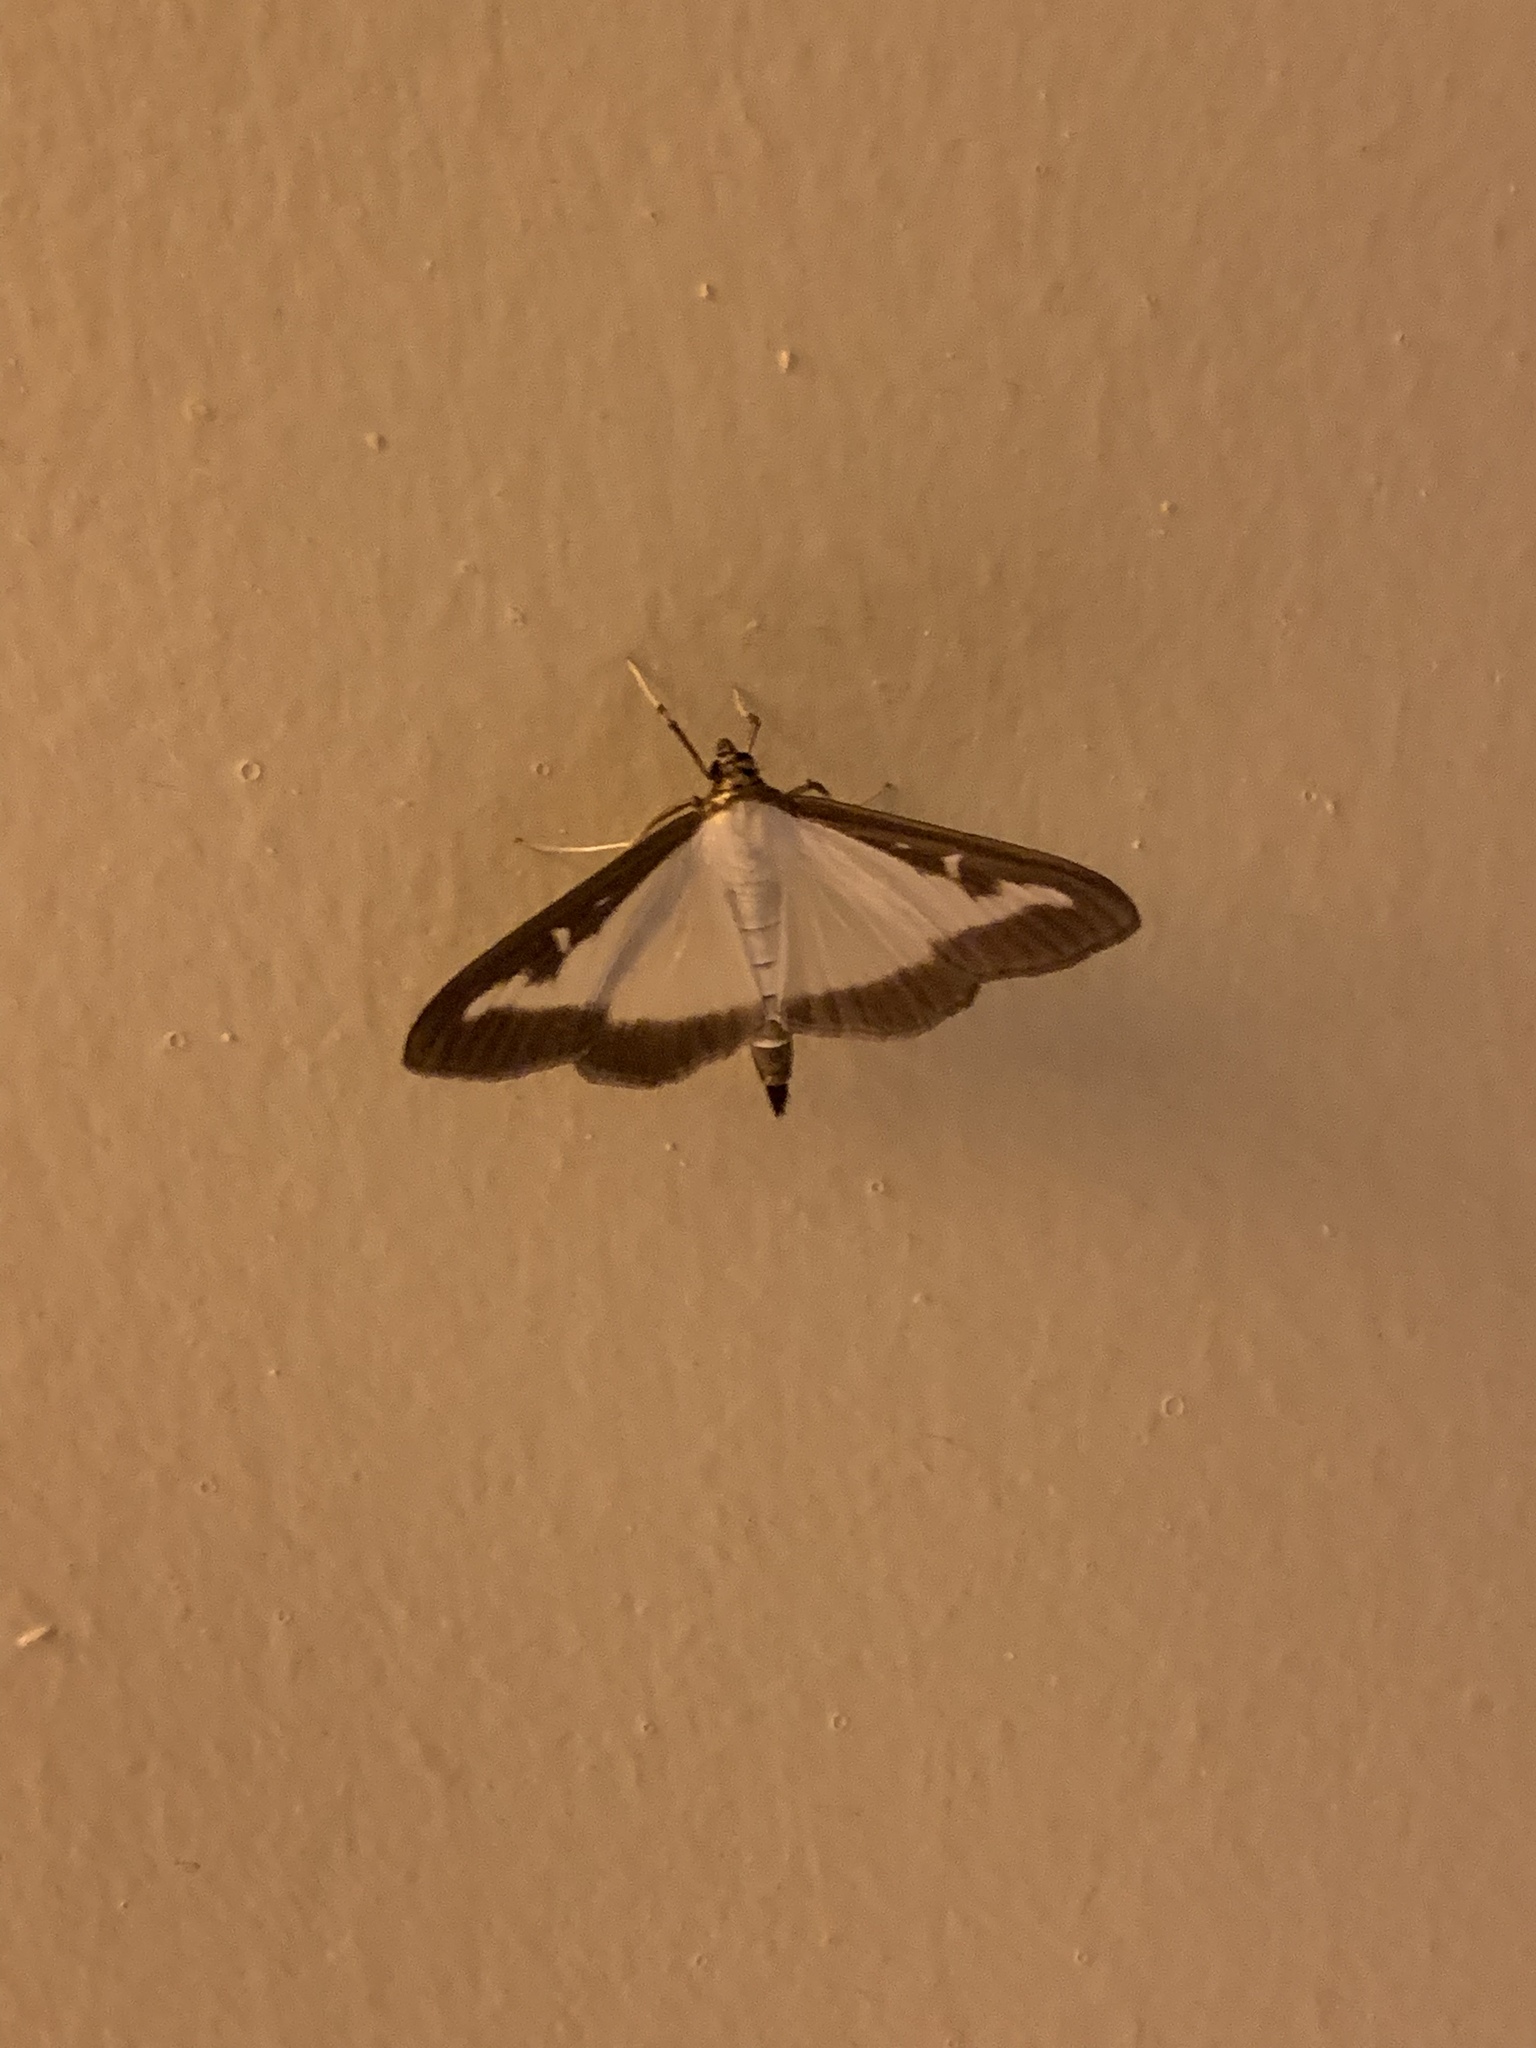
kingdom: Animalia
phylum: Arthropoda
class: Insecta
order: Lepidoptera
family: Crambidae
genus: Cydalima
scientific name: Cydalima perspectalis
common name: Box tree moth
